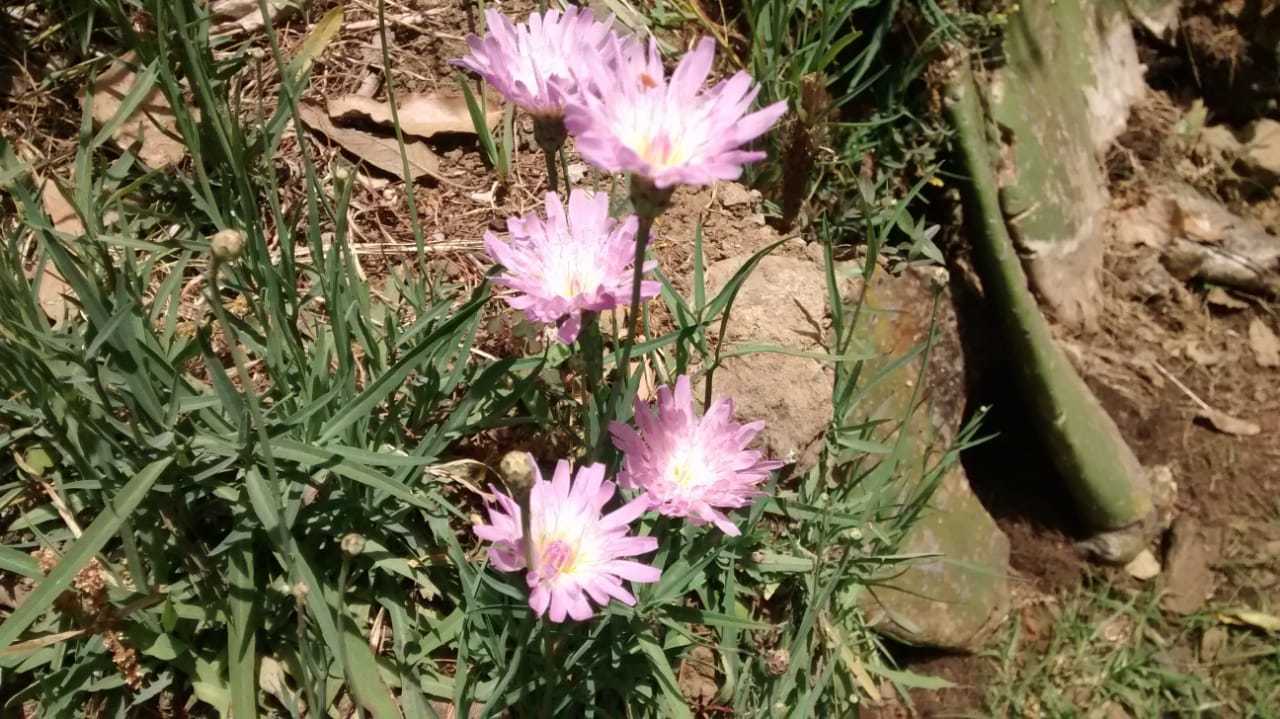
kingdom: Plantae
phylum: Tracheophyta
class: Magnoliopsida
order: Asterales
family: Asteraceae
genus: Pinaropappus
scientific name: Pinaropappus roseus
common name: Rock-lettuce
